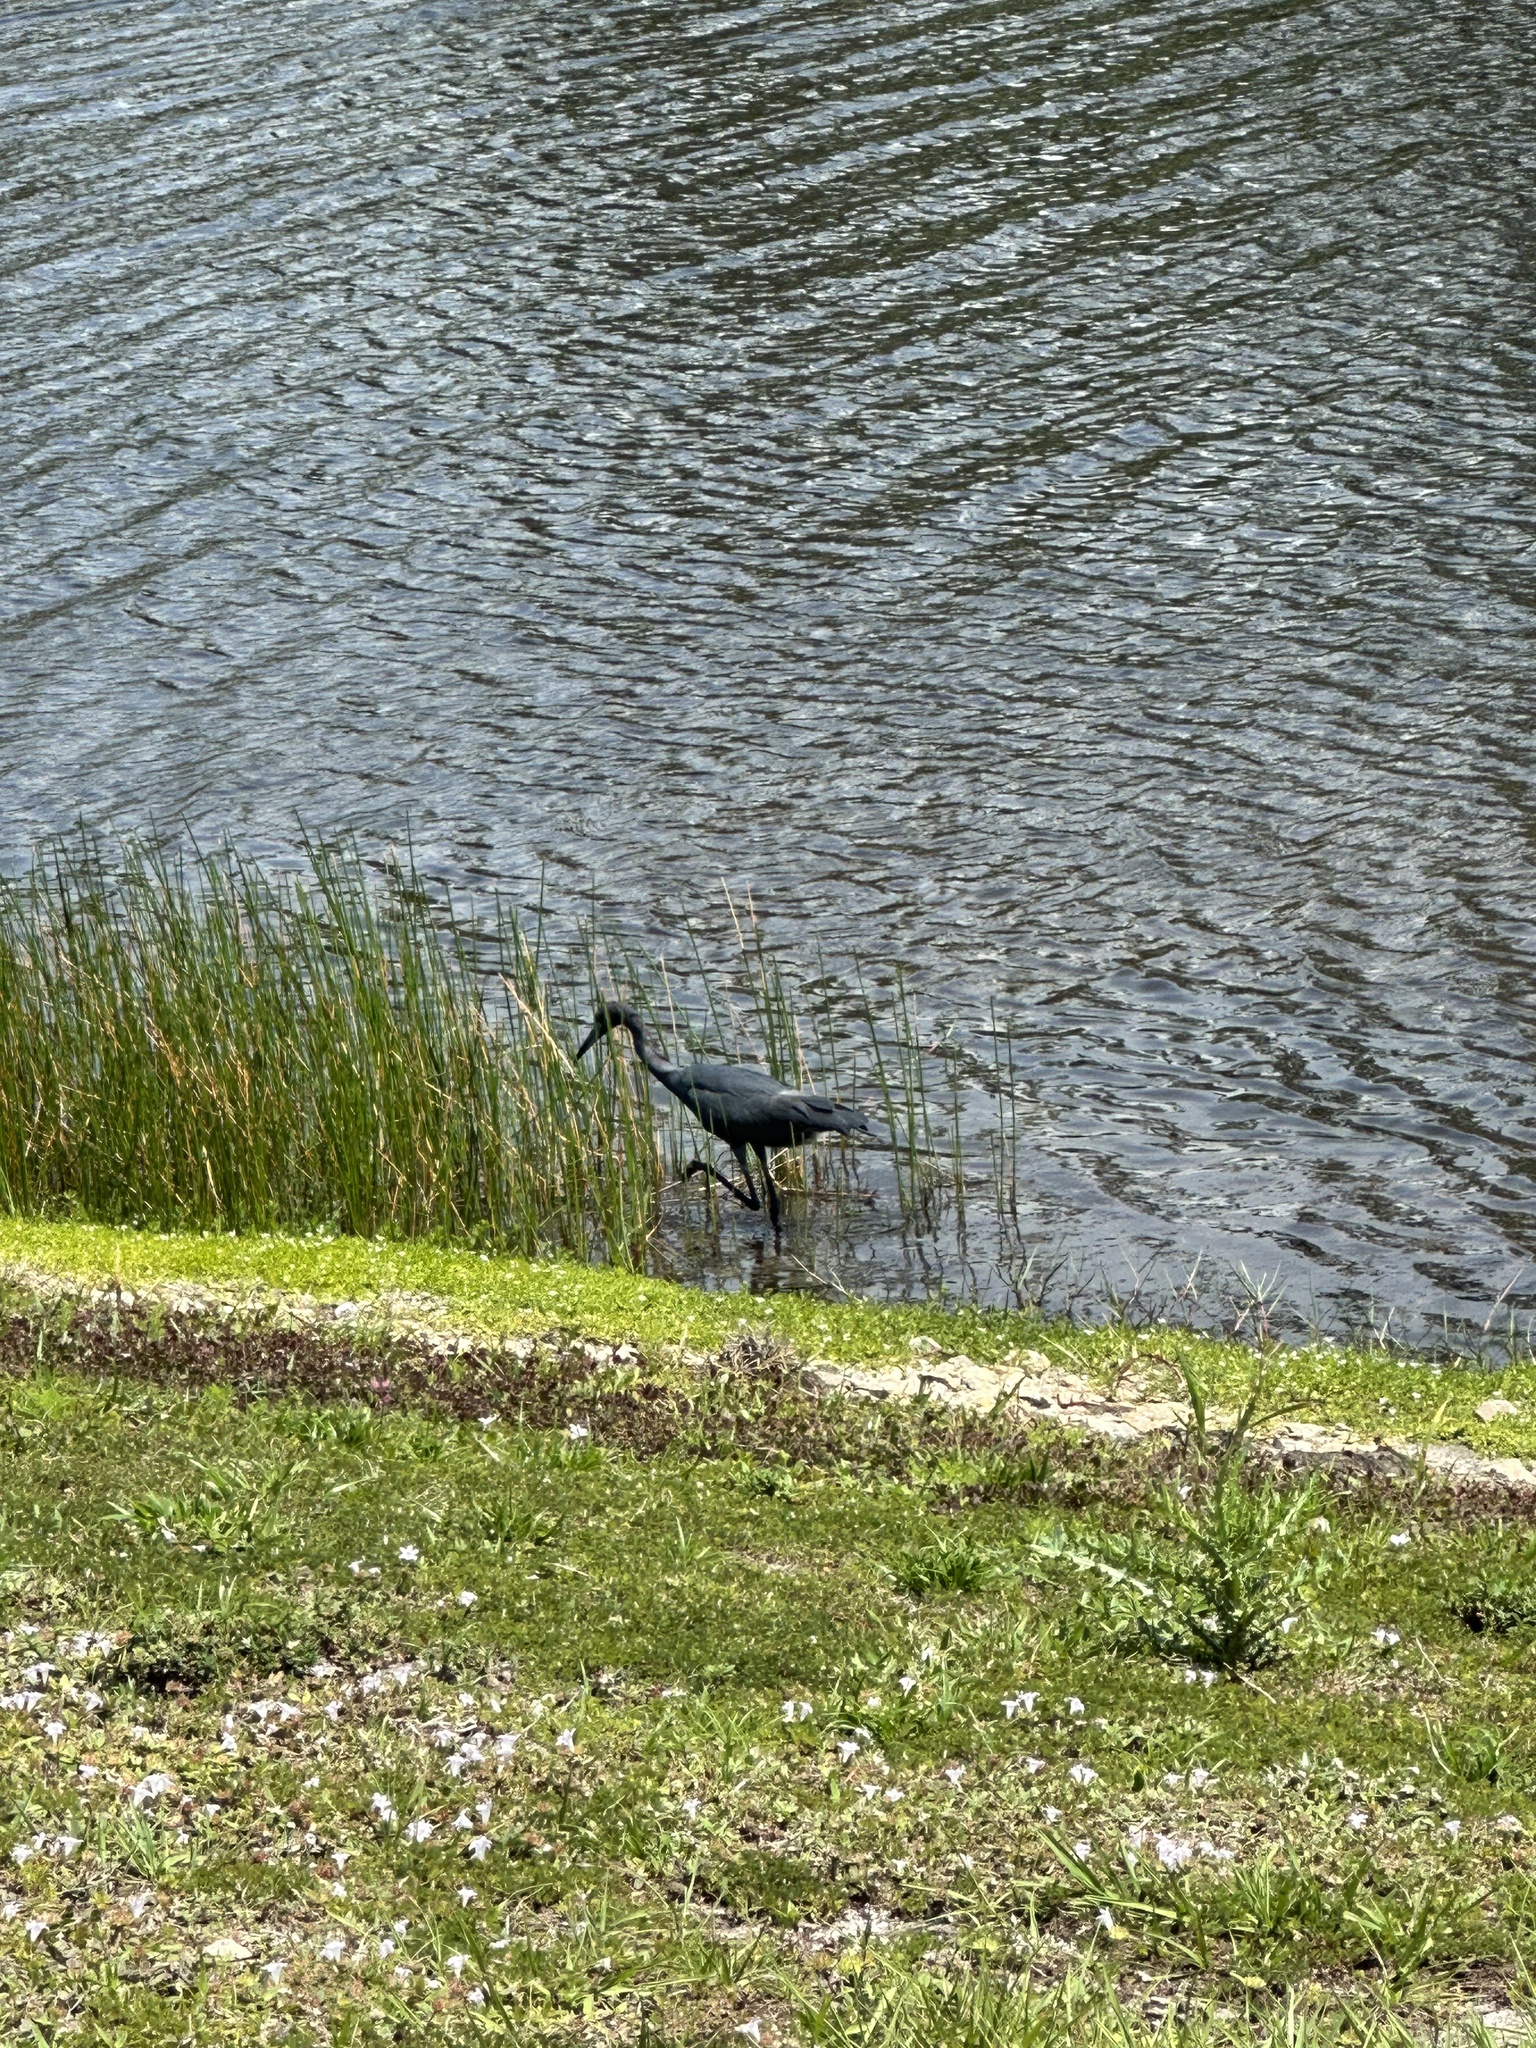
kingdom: Animalia
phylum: Chordata
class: Aves
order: Pelecaniformes
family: Ardeidae
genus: Egretta
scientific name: Egretta caerulea
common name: Little blue heron
